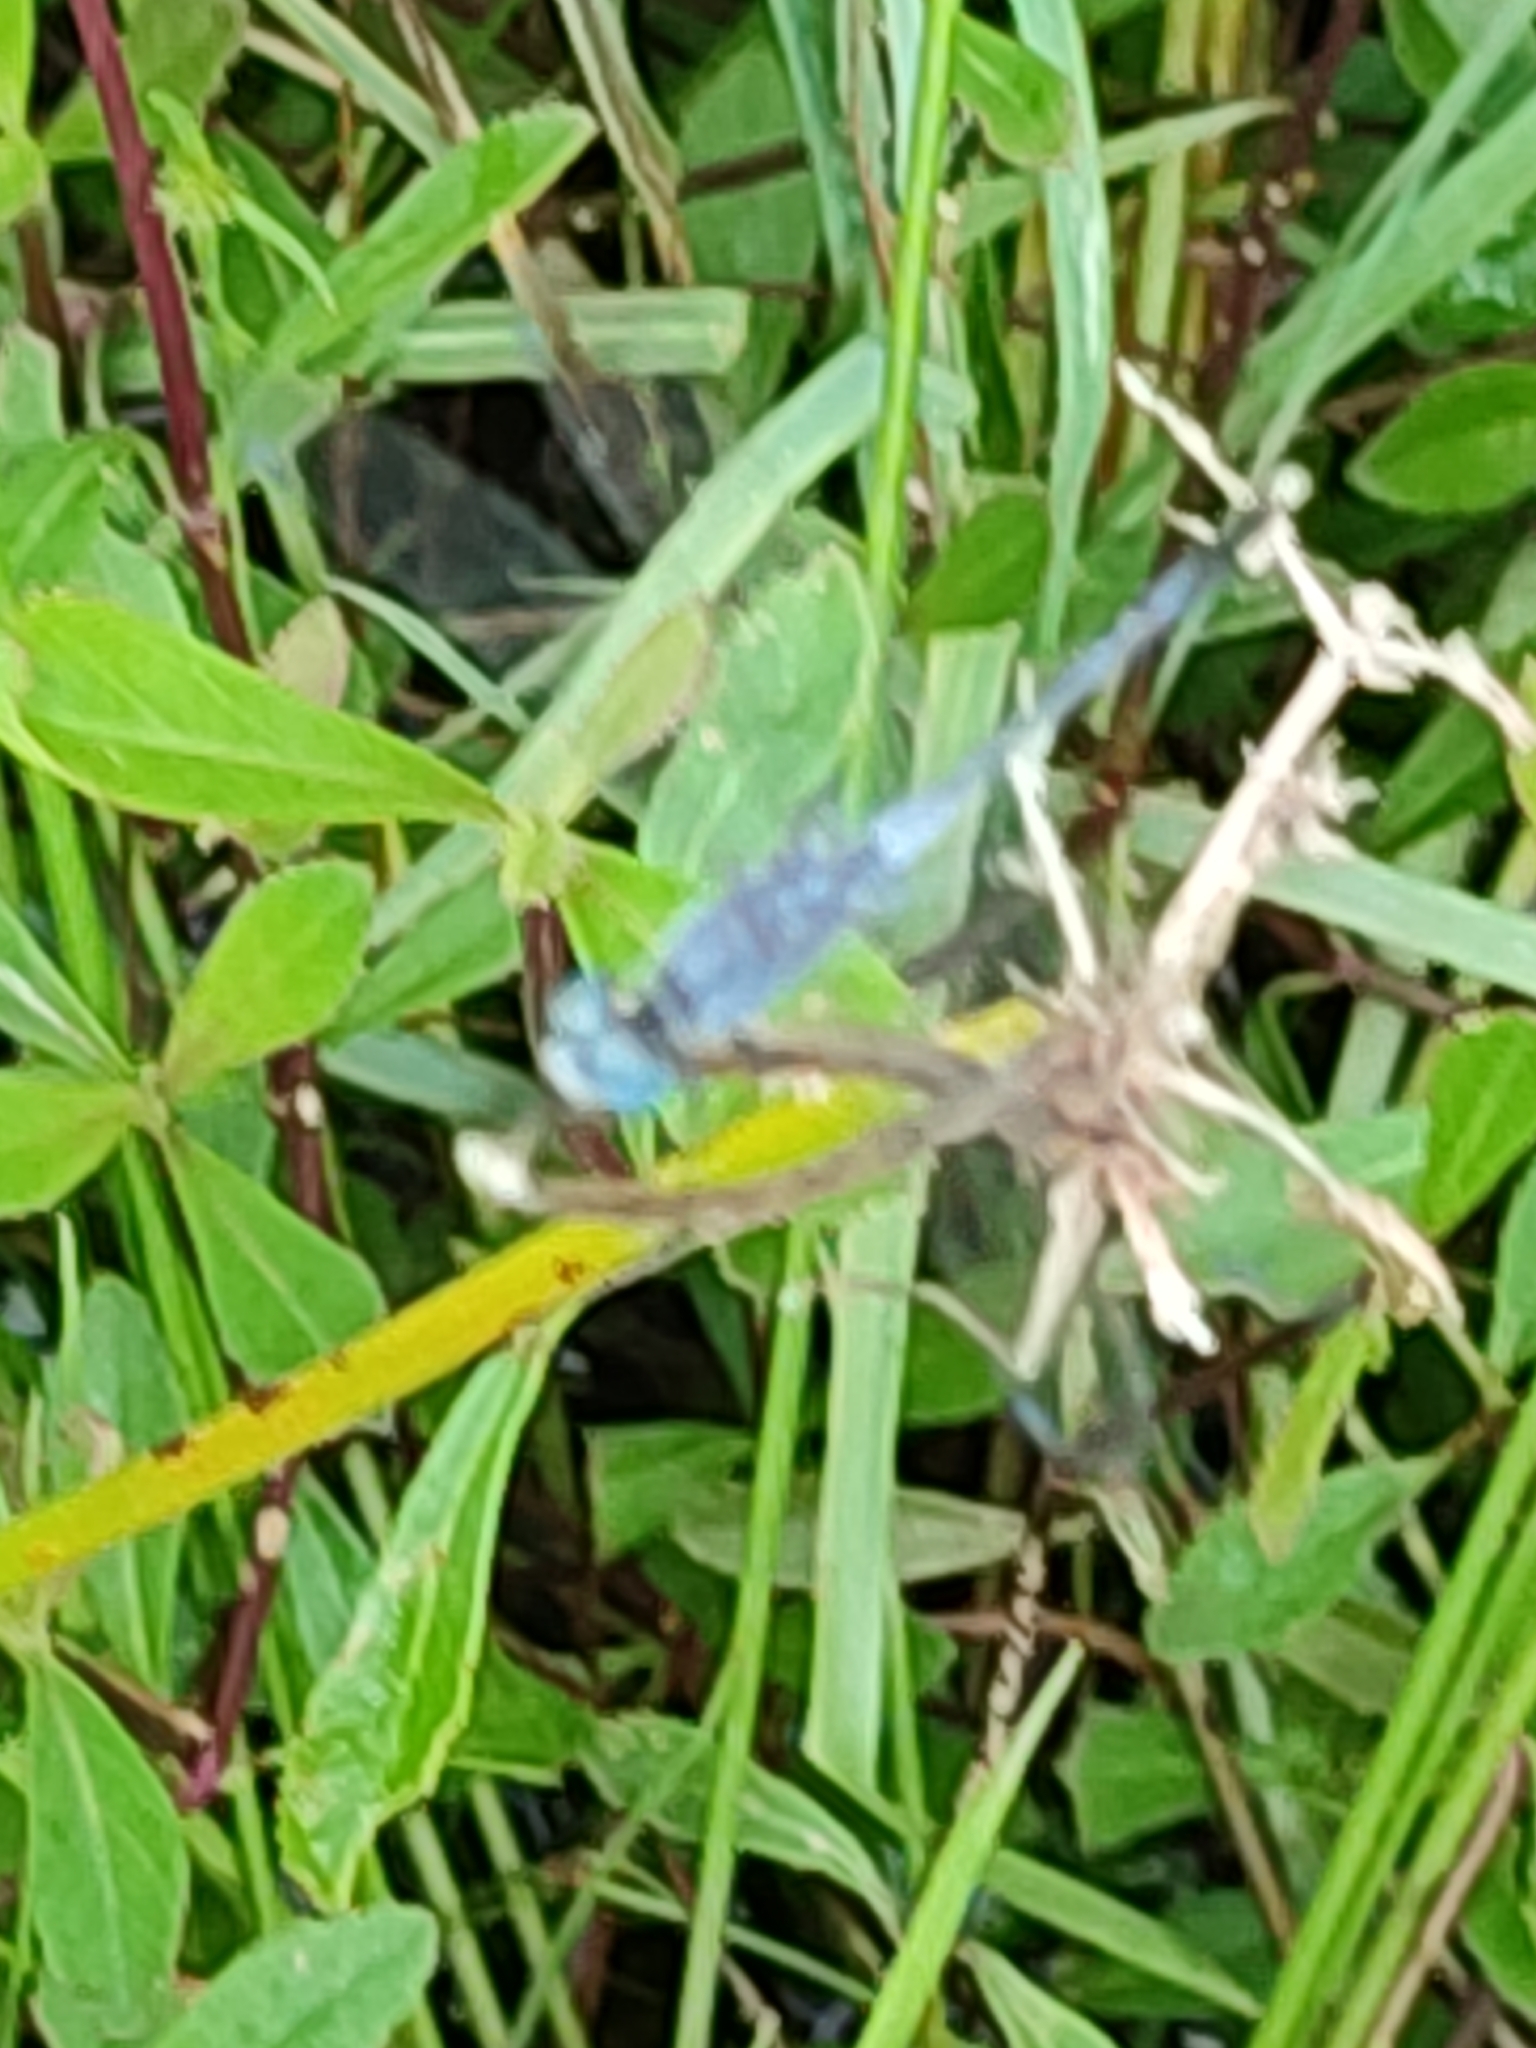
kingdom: Animalia
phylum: Arthropoda
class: Insecta
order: Odonata
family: Libellulidae
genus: Diplacodes
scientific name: Diplacodes trivialis
